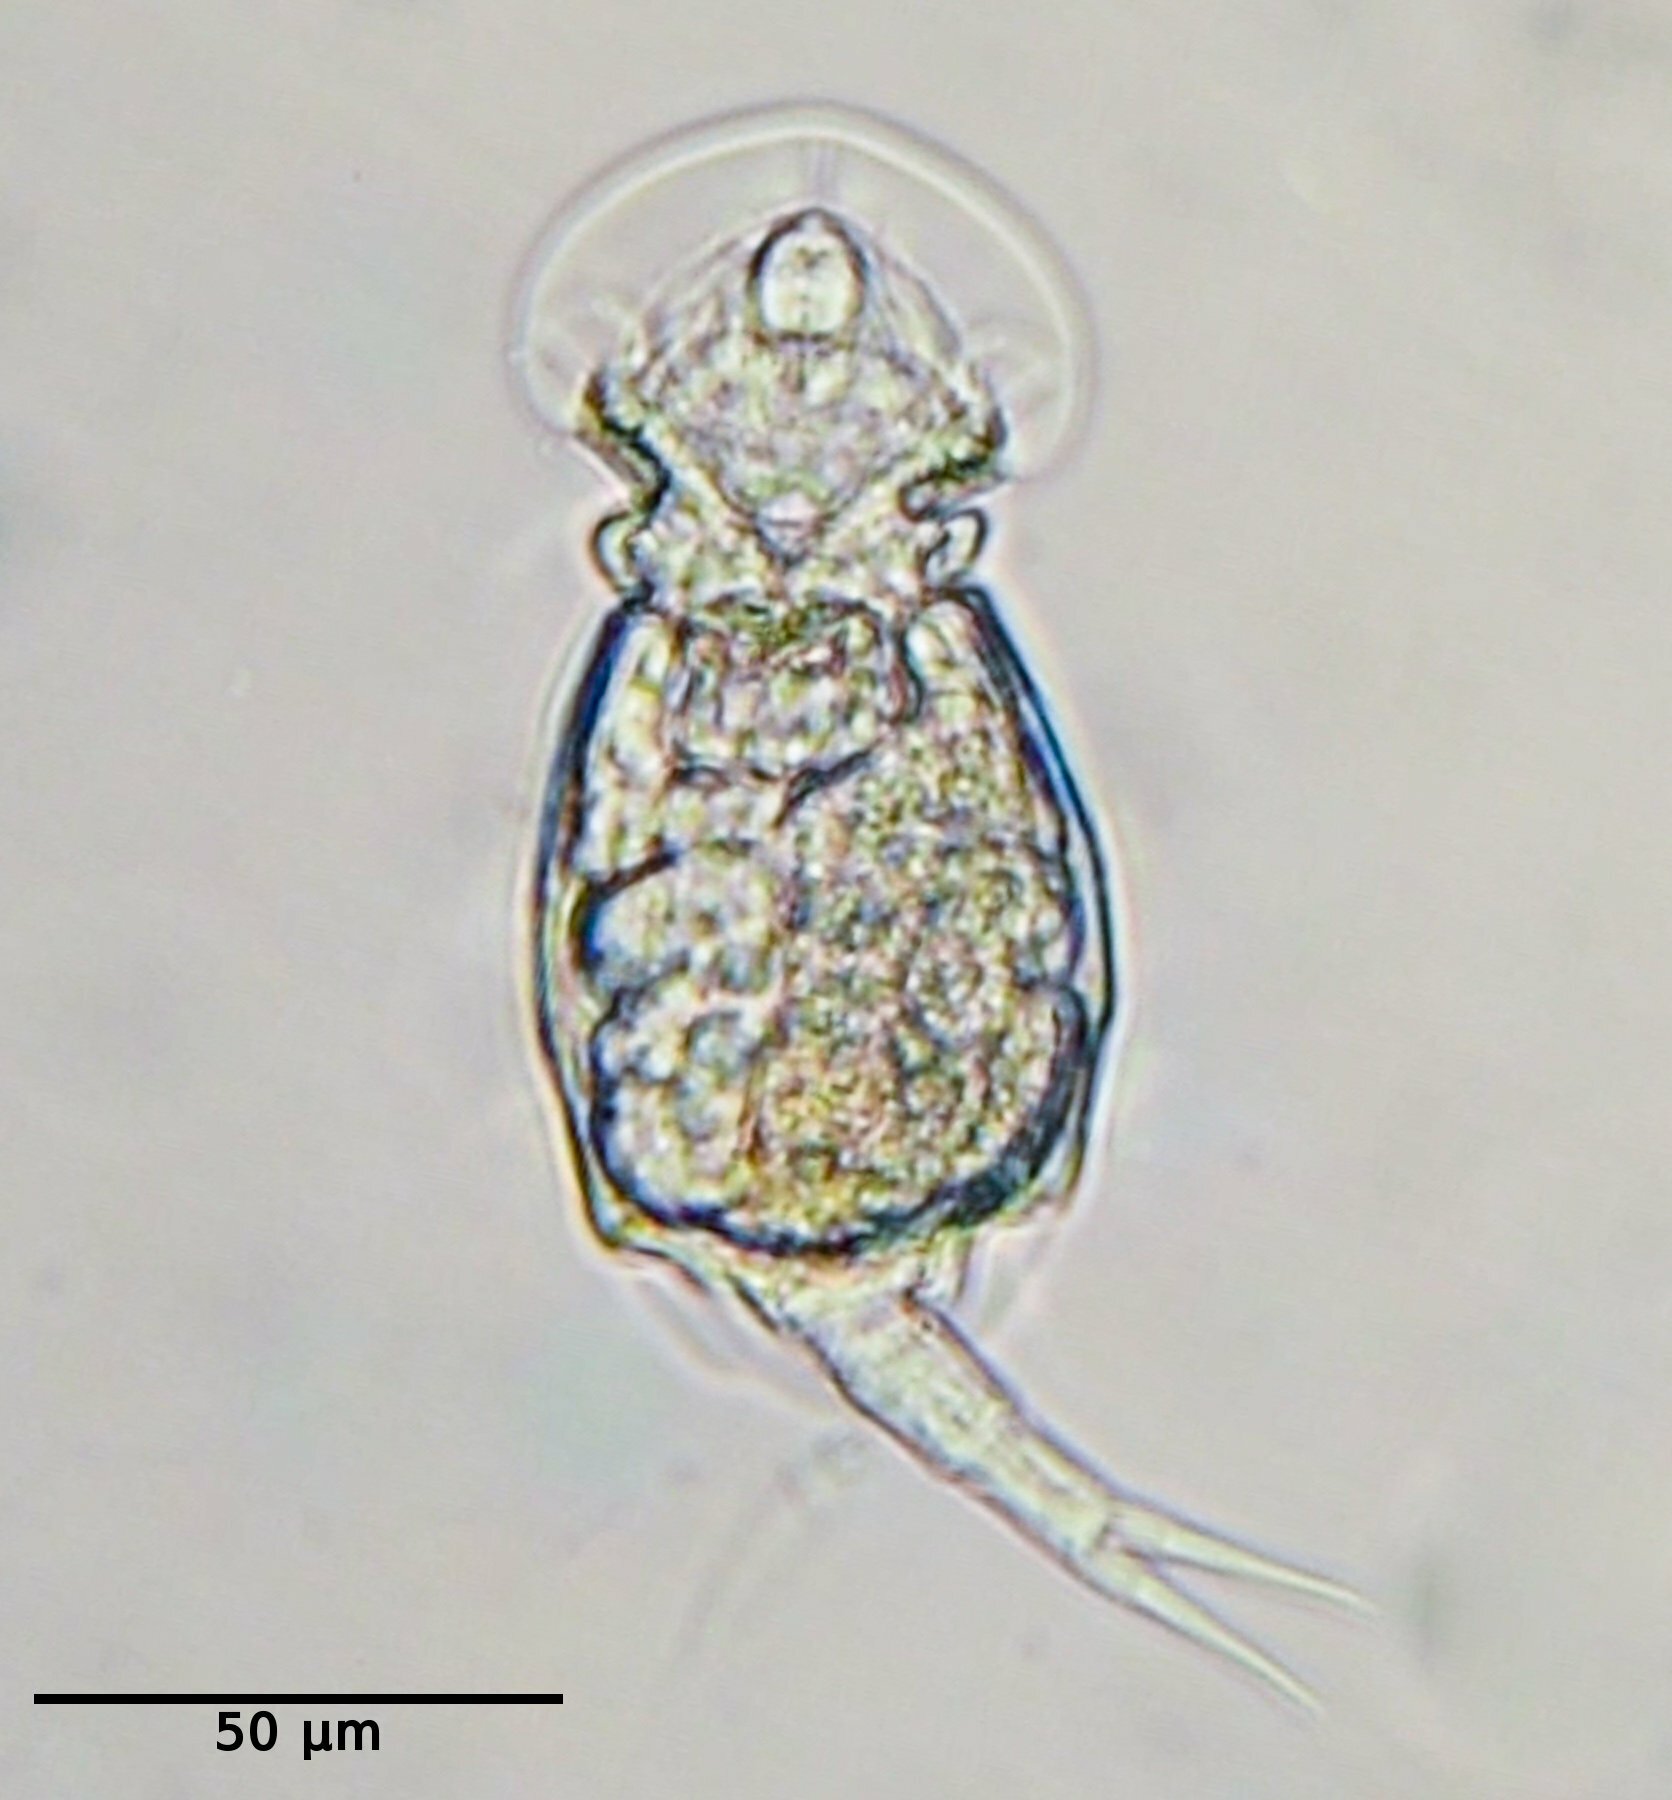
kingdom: Animalia
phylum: Rotifera
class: Eurotatoria
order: Ploima
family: Lepadellidae
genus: Squatinella
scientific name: Squatinella lamellaris
